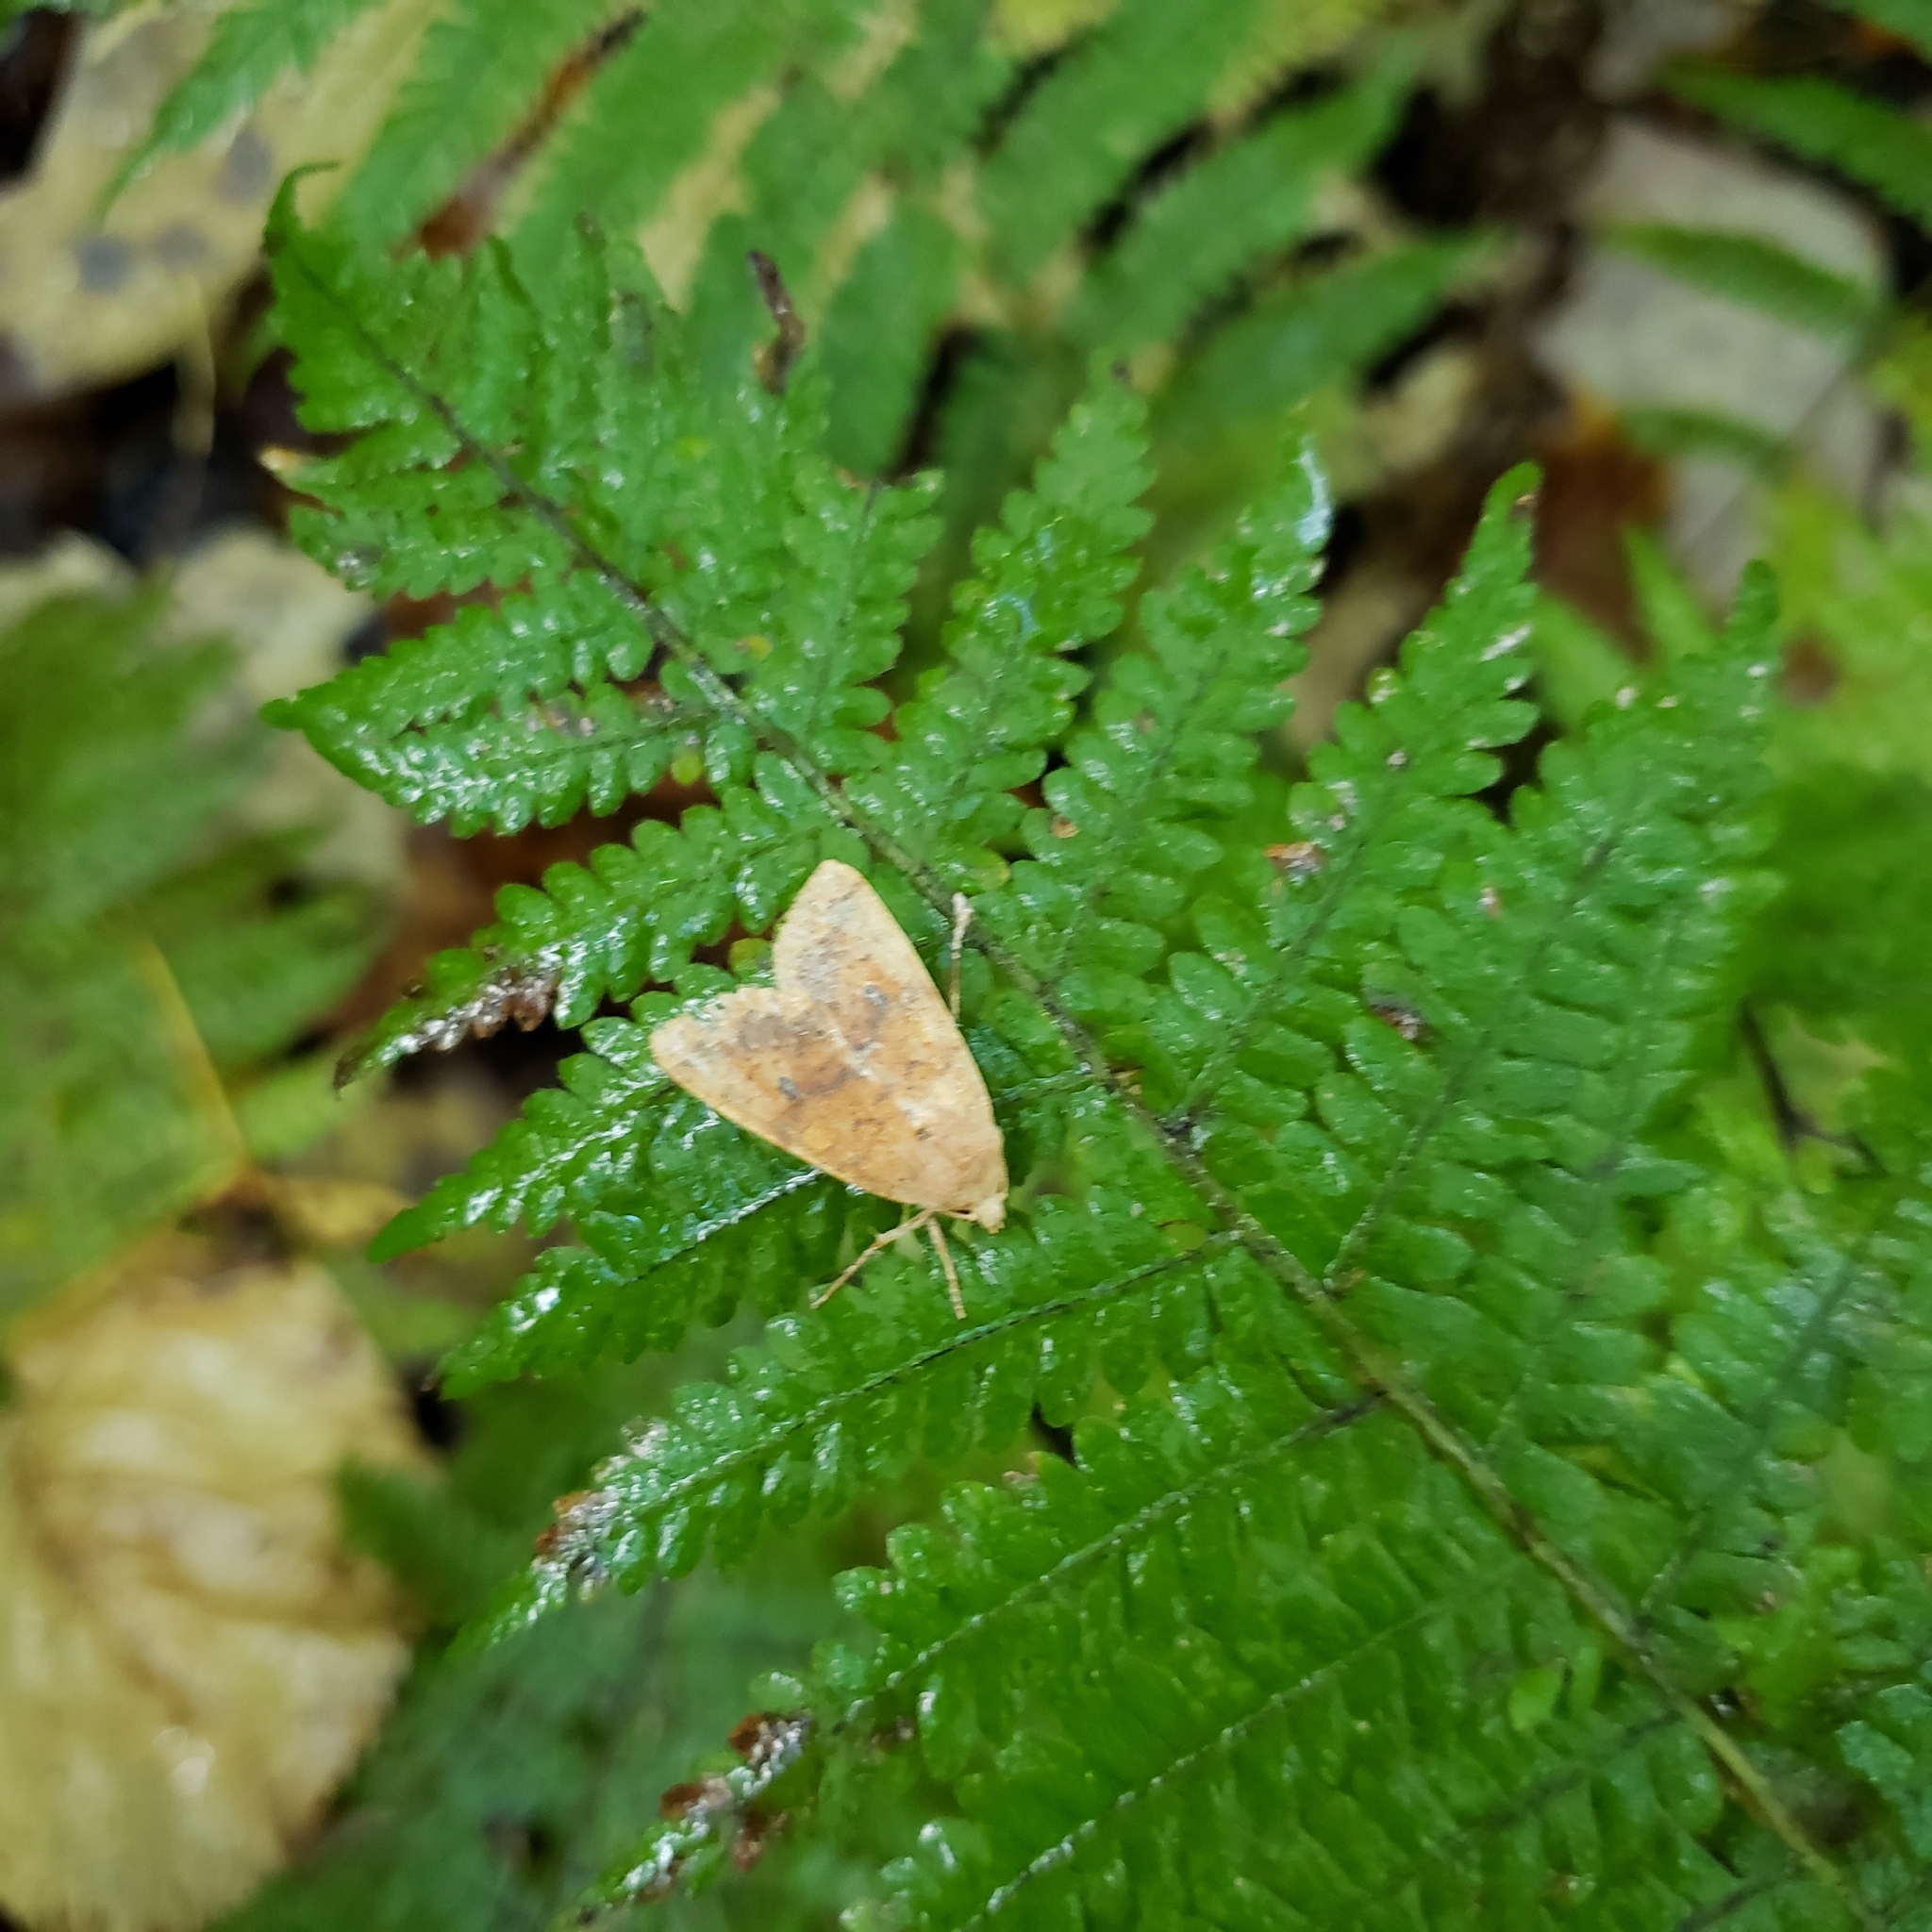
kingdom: Animalia
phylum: Arthropoda
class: Insecta
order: Lepidoptera
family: Noctuidae
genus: Agrochola
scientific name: Agrochola bicolorago
